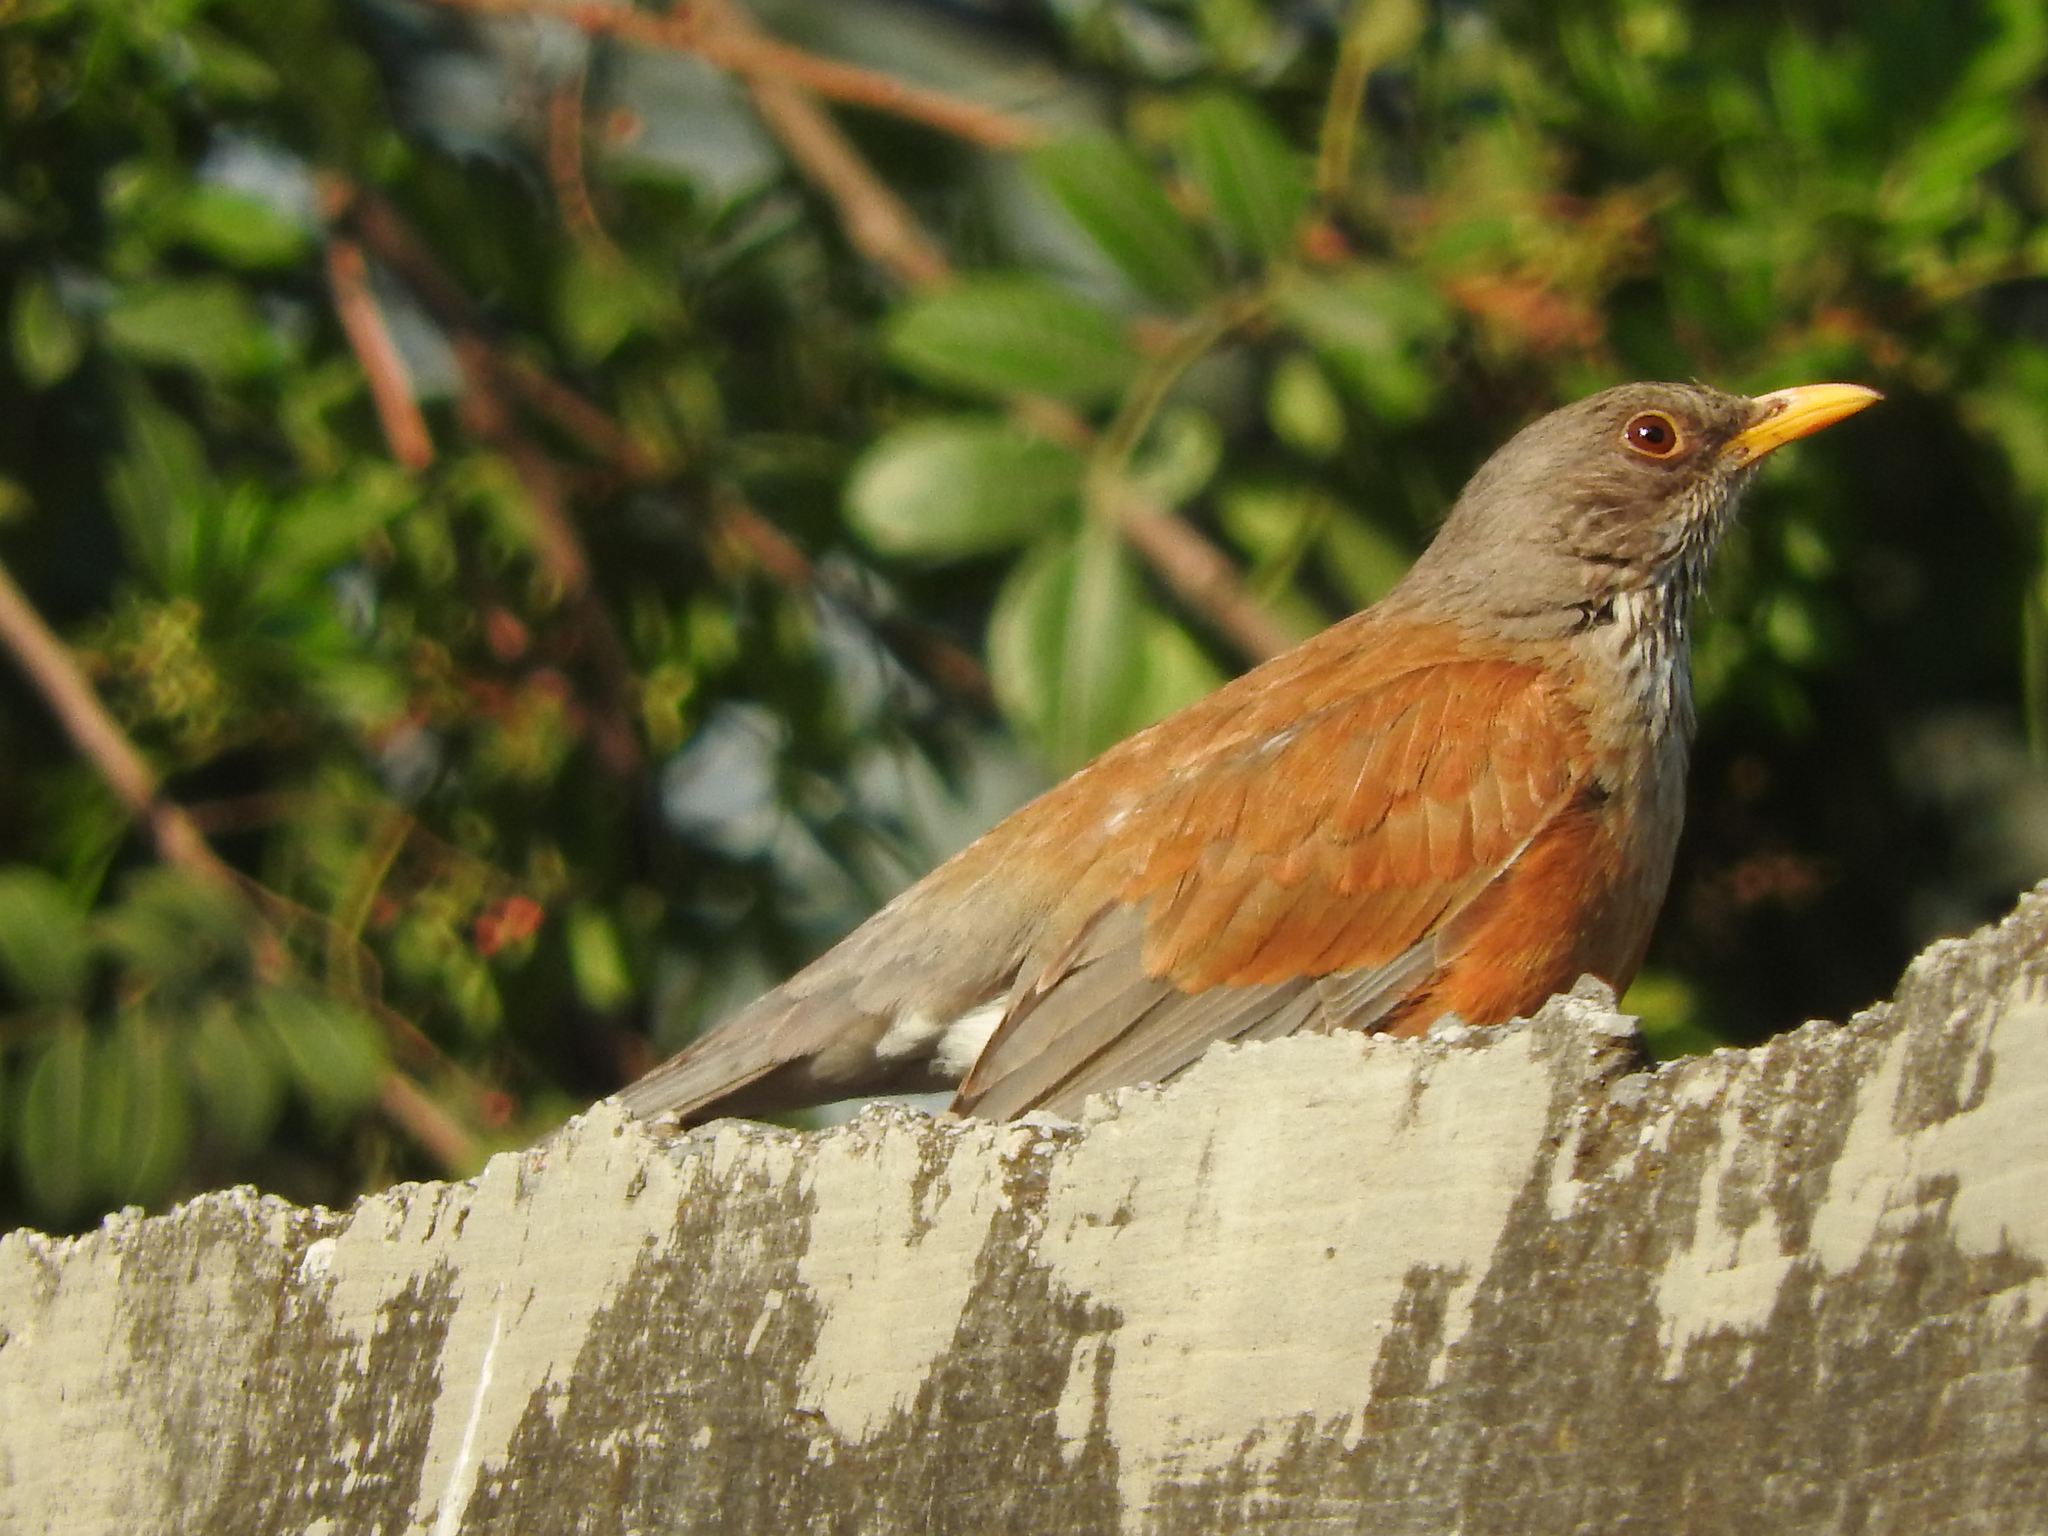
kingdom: Animalia
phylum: Chordata
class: Aves
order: Passeriformes
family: Turdidae
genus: Turdus
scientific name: Turdus rufopalliatus
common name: Rufous-backed robin
